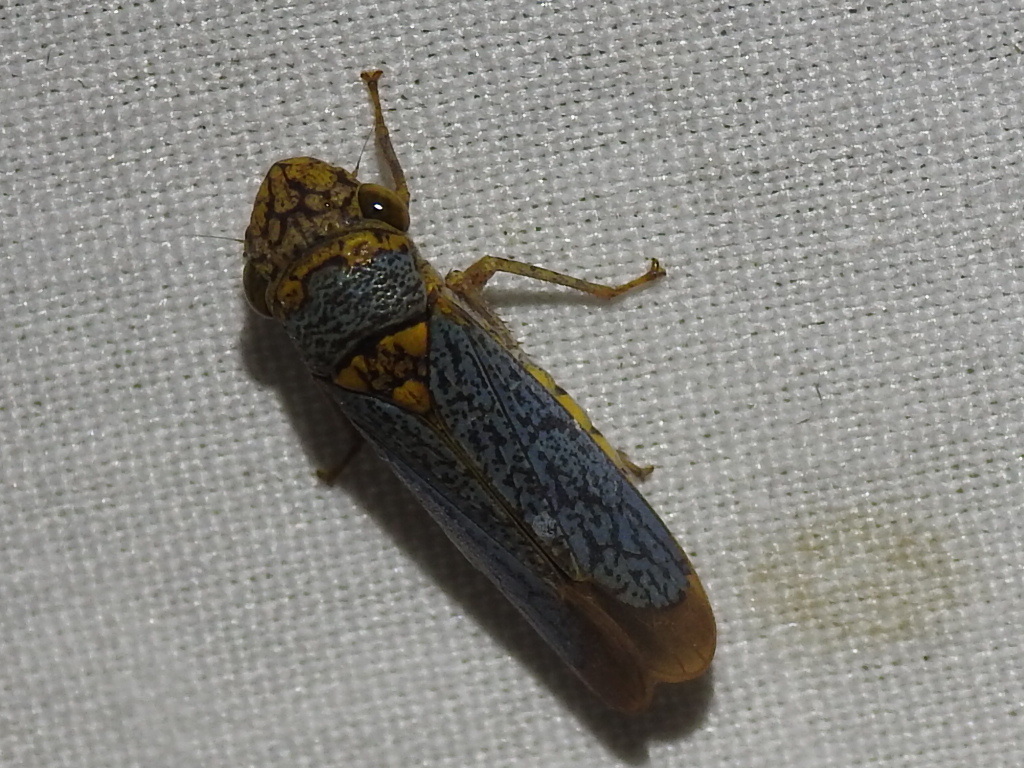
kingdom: Animalia
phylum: Arthropoda
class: Insecta
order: Hemiptera
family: Cicadellidae
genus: Oncometopia
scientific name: Oncometopia orbona
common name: Broad-headed sharpshooter
